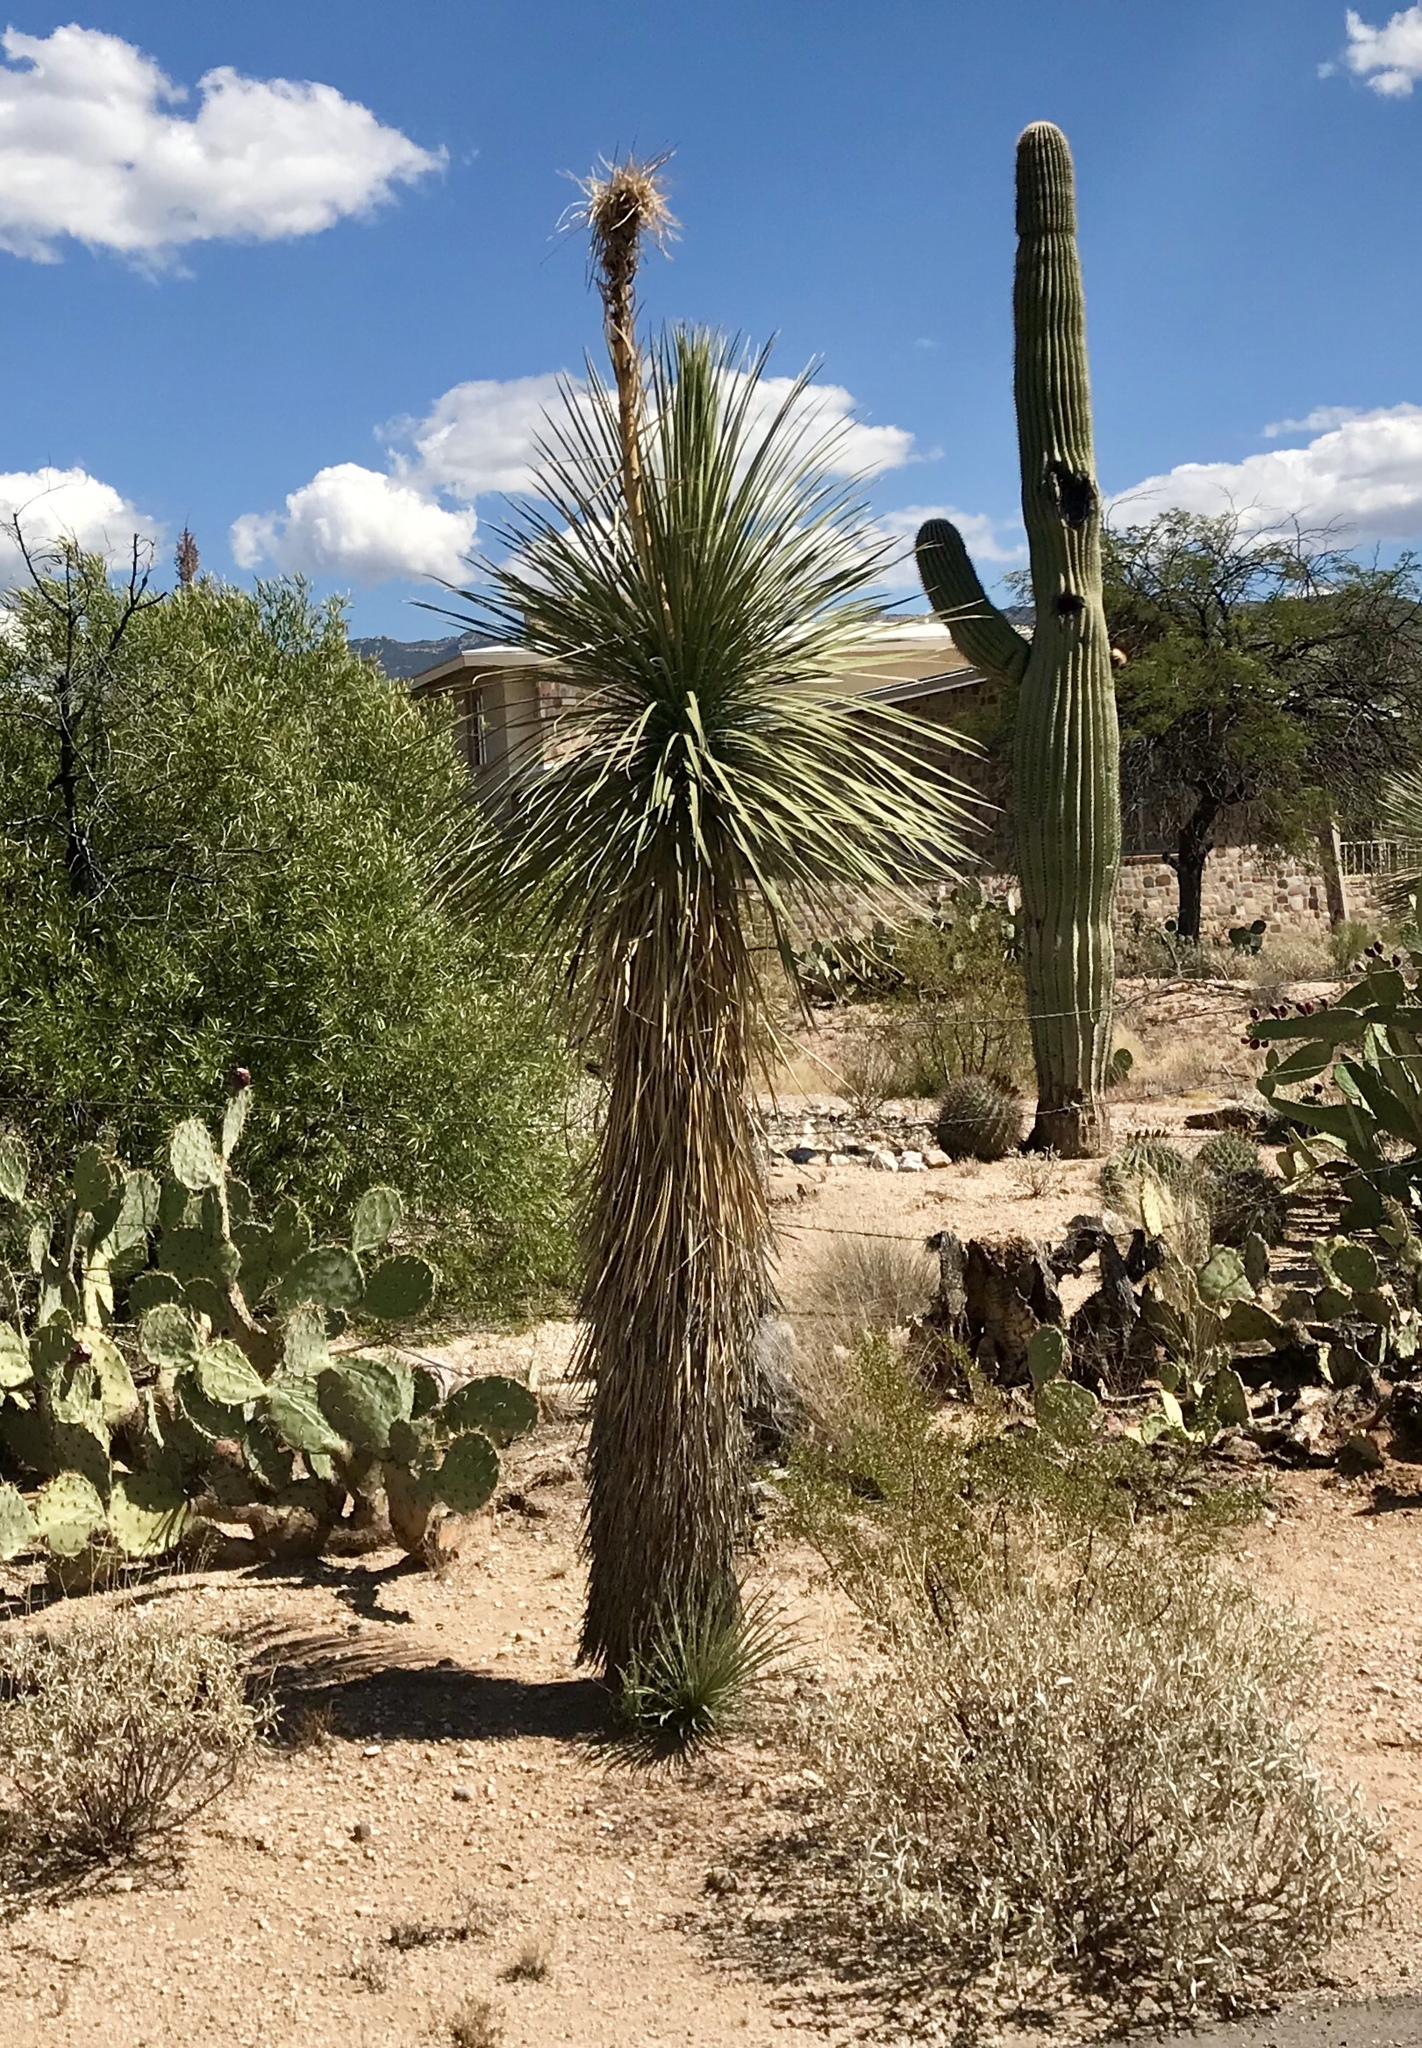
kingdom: Plantae
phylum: Tracheophyta
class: Liliopsida
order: Asparagales
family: Asparagaceae
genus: Yucca
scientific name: Yucca elata
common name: Palmella
